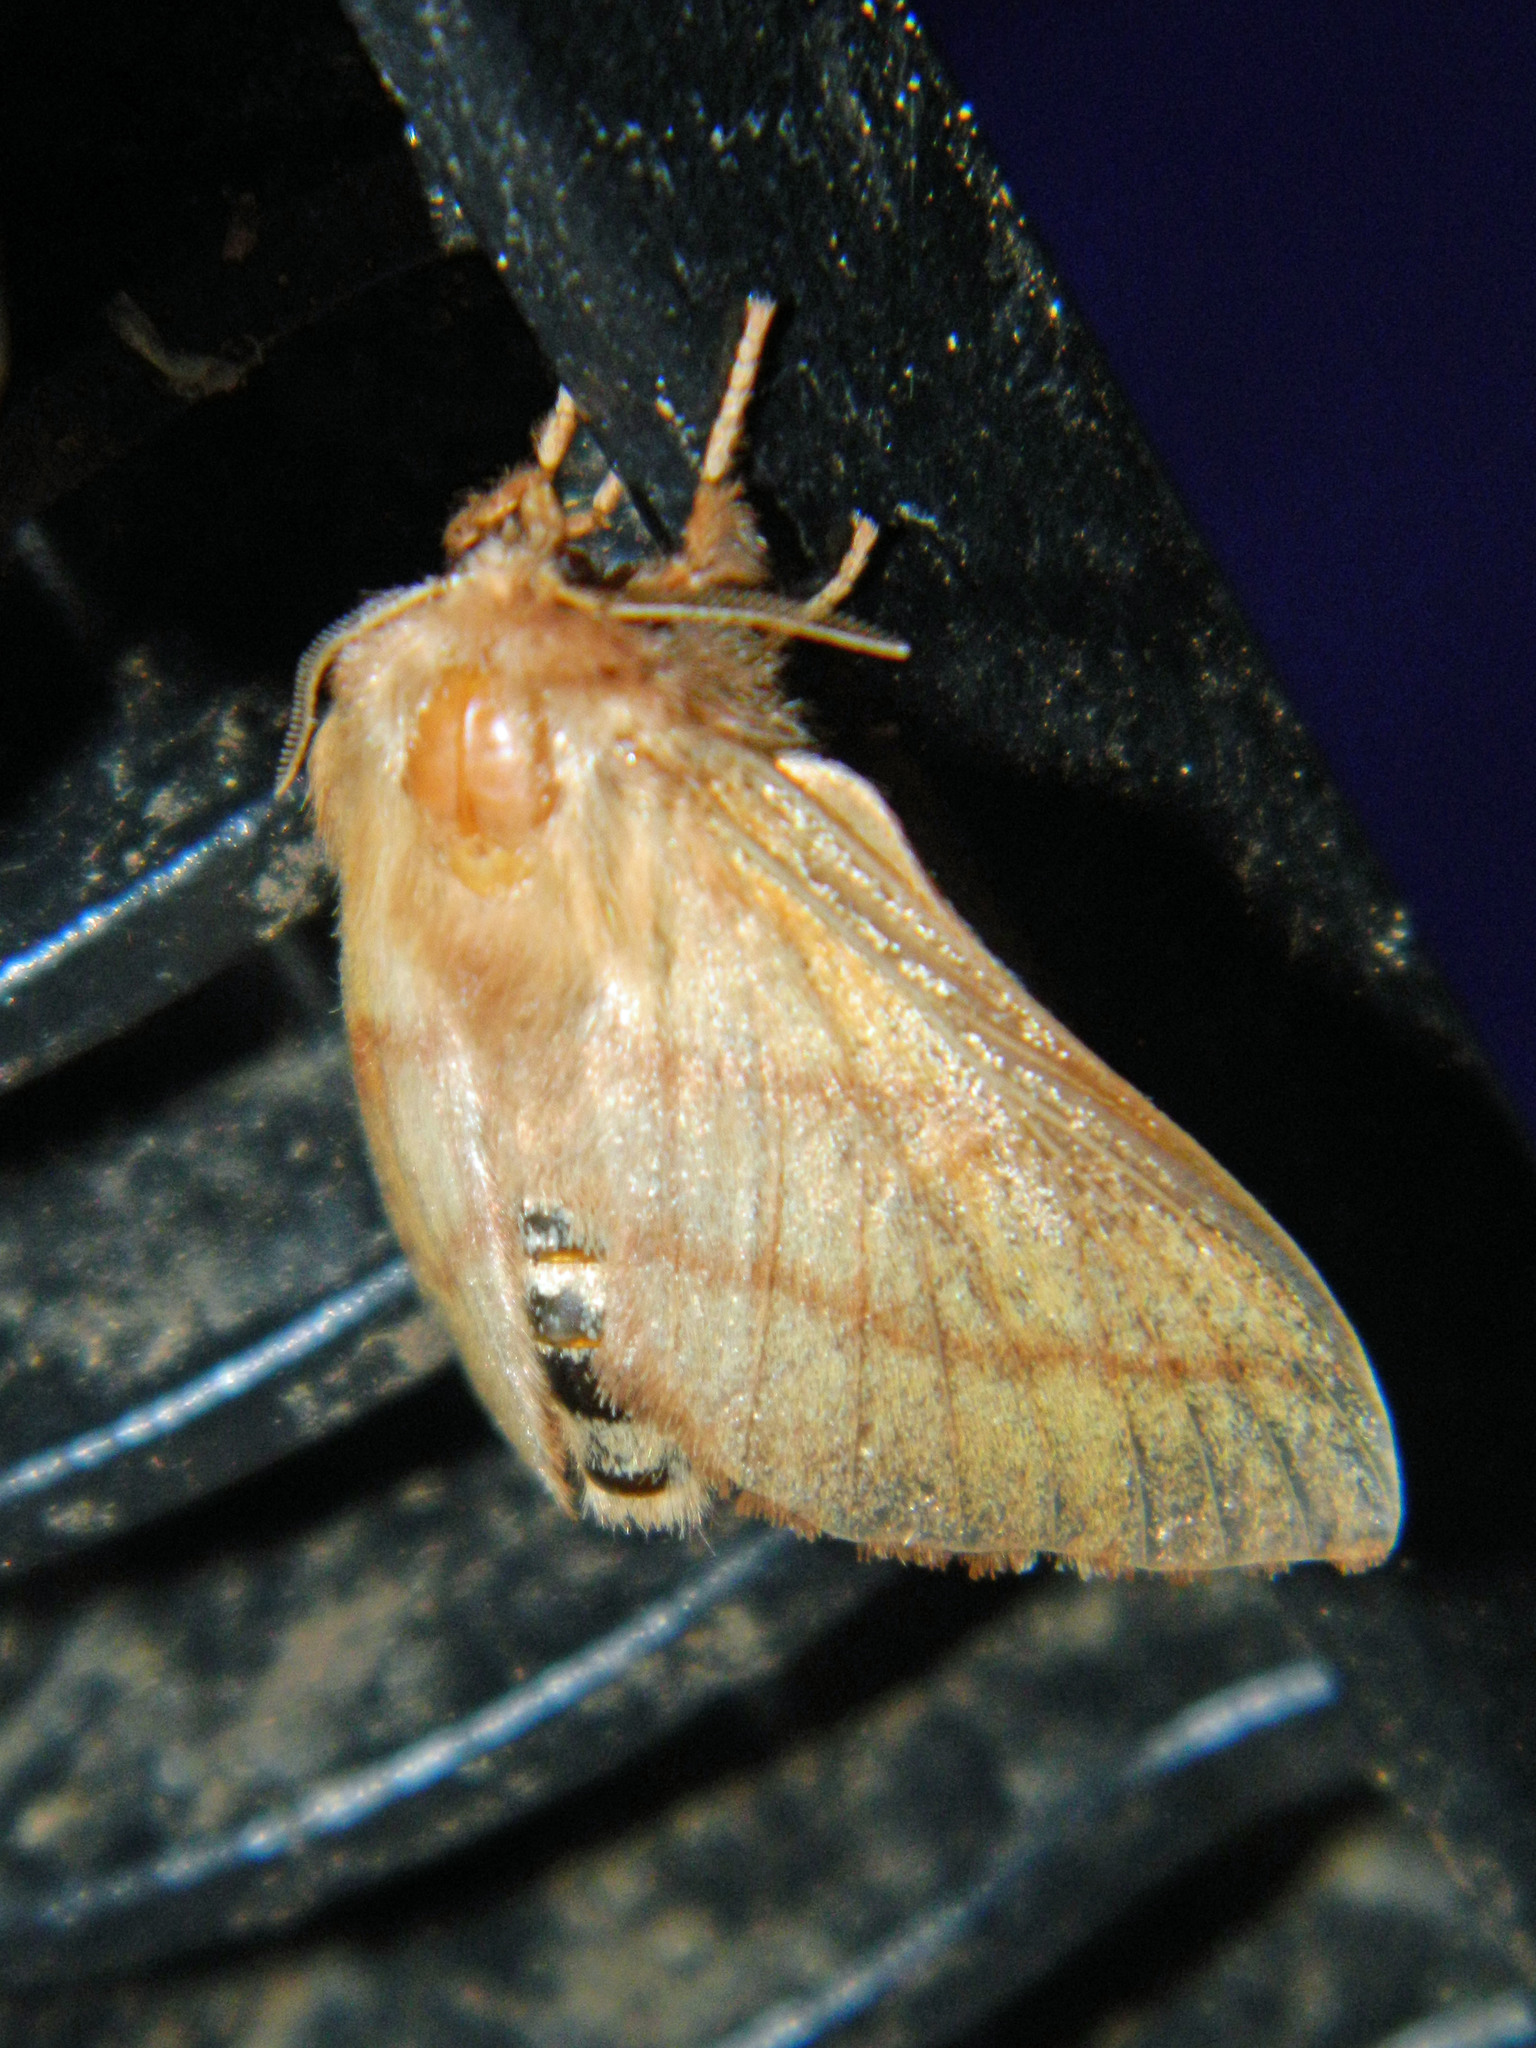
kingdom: Animalia
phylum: Arthropoda
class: Insecta
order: Lepidoptera
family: Lasiocampidae
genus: Malacosoma
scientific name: Malacosoma disstria
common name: Forest tent caterpillar
